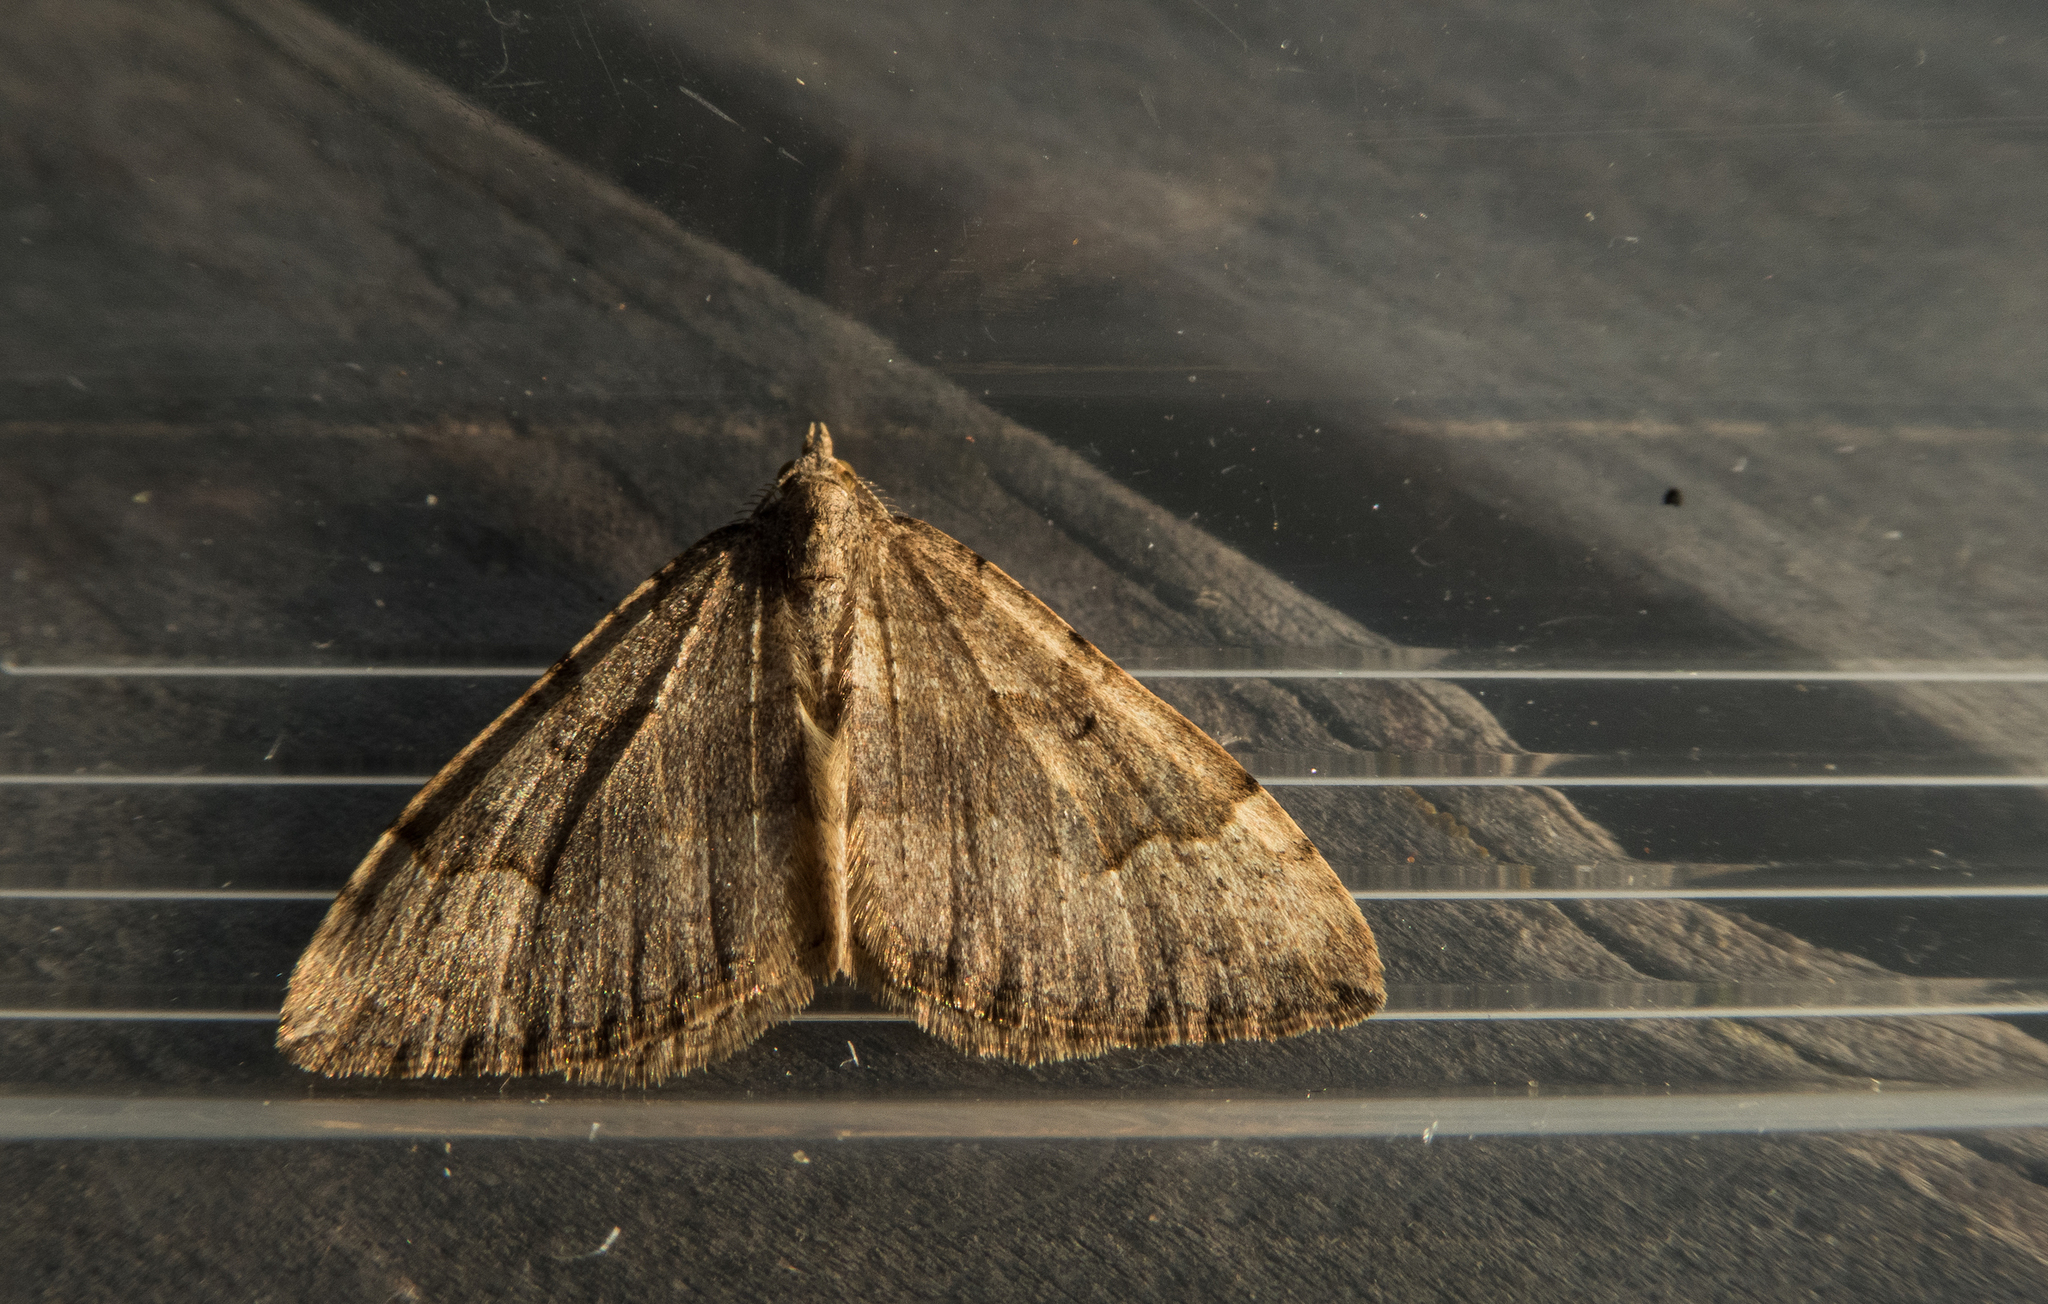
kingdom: Animalia
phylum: Arthropoda
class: Insecta
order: Lepidoptera
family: Geometridae
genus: Epyaxa
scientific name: Epyaxa rosearia
